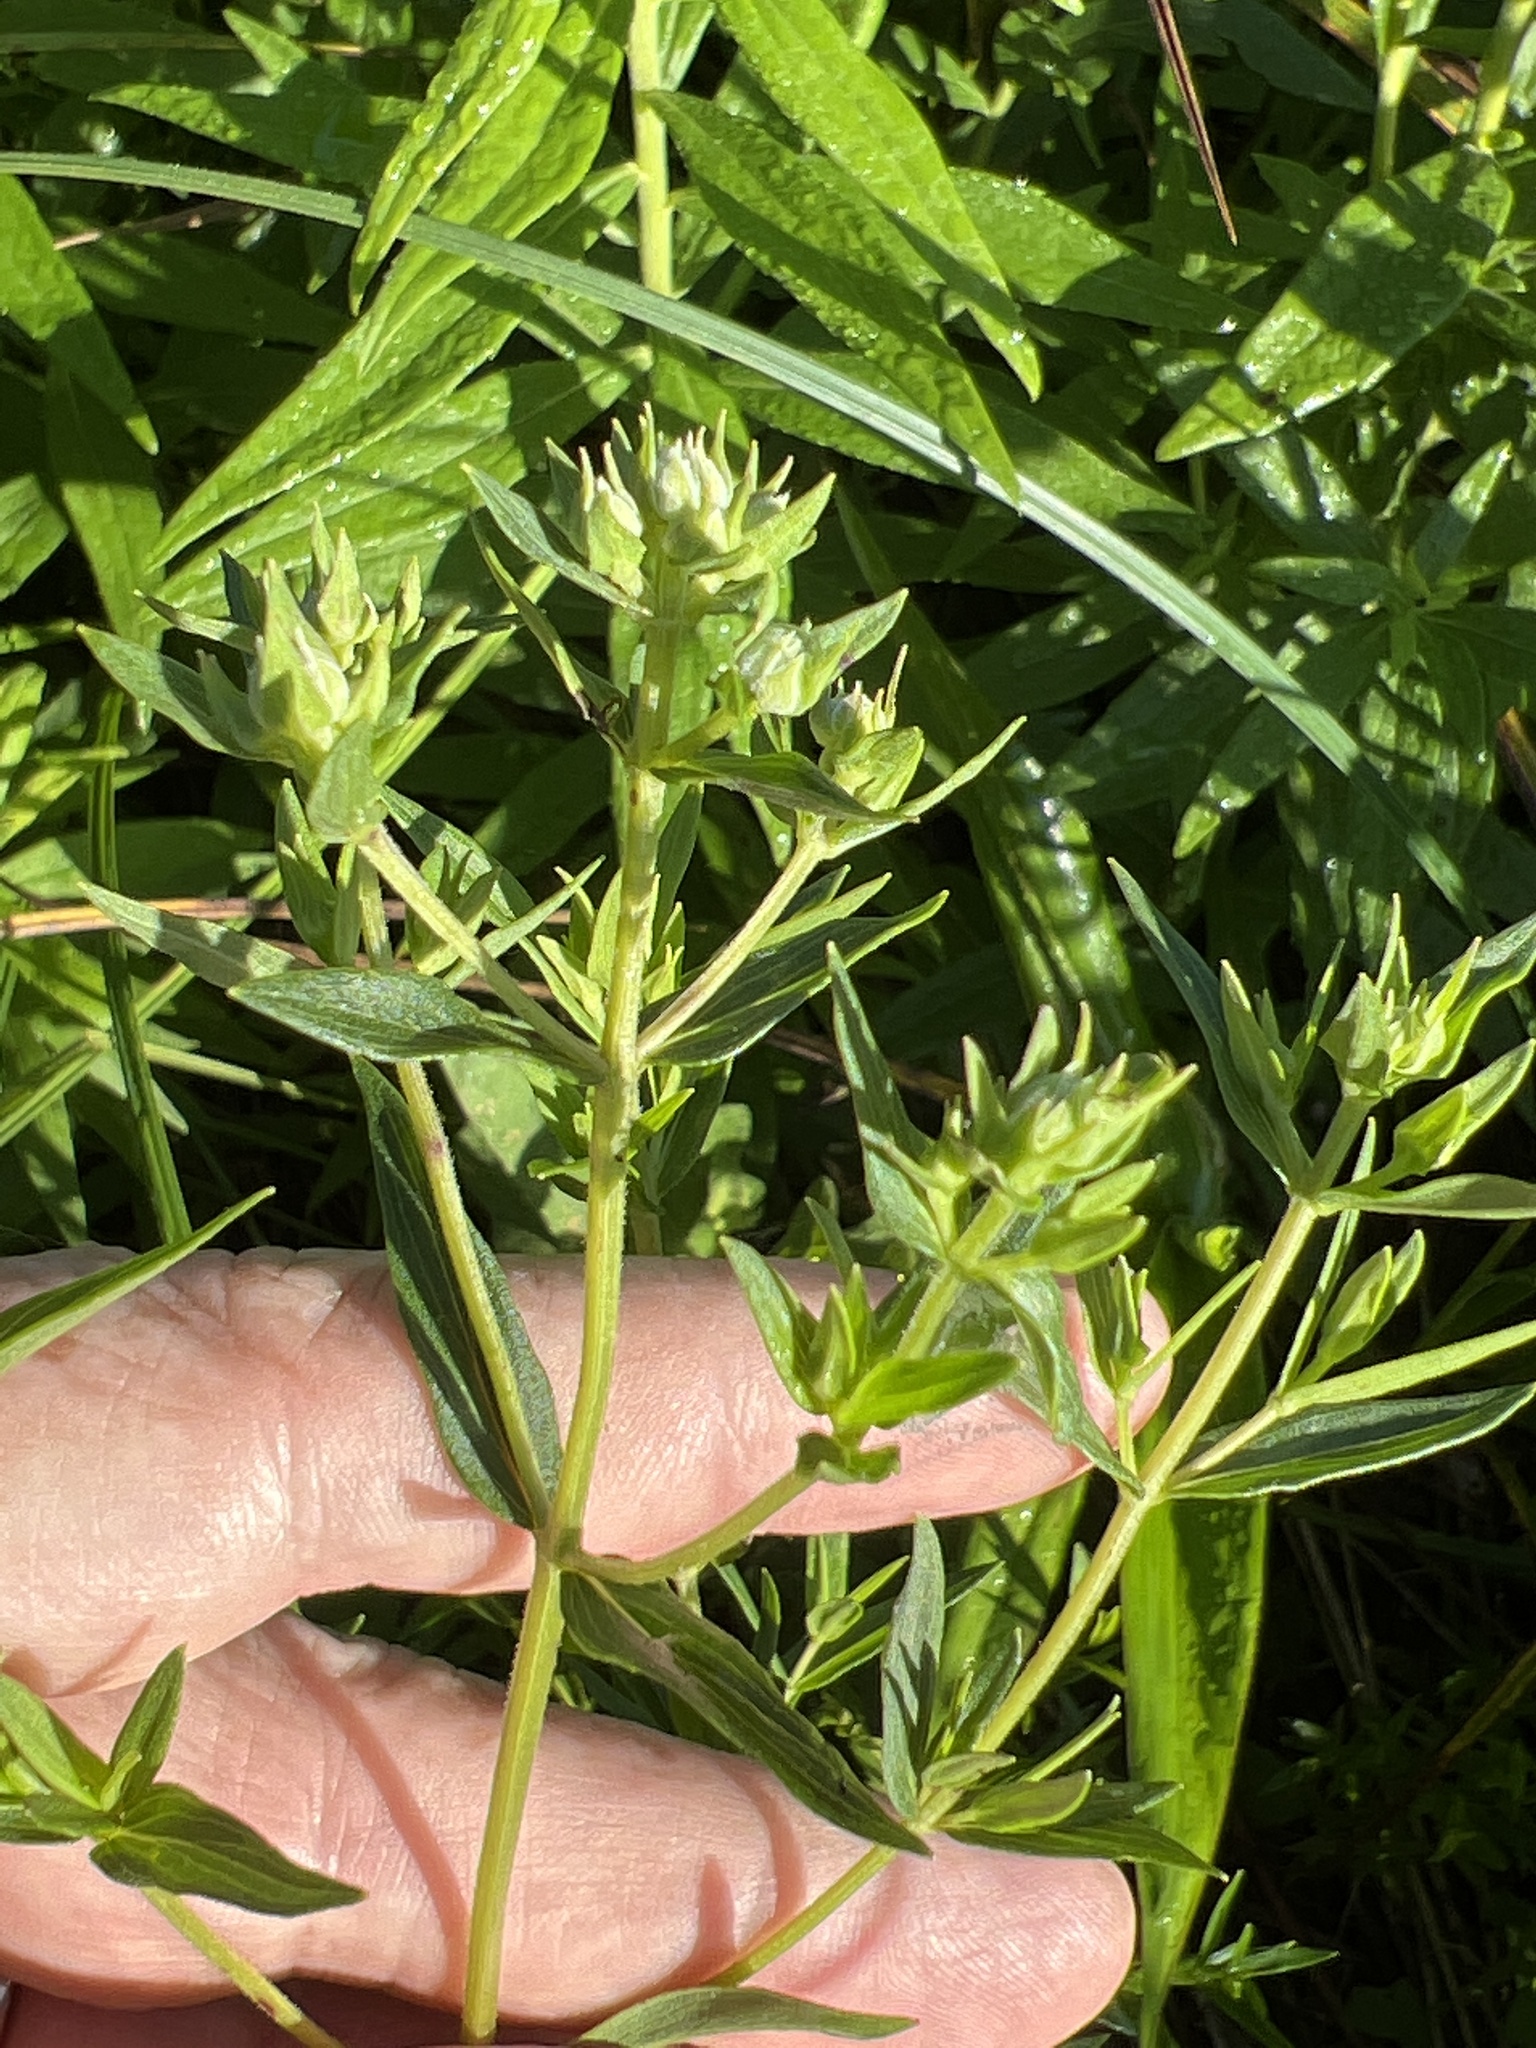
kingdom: Plantae
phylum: Tracheophyta
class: Magnoliopsida
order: Lamiales
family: Lamiaceae
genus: Pycnanthemum
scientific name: Pycnanthemum virginianum
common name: Virginia mountain-mint
